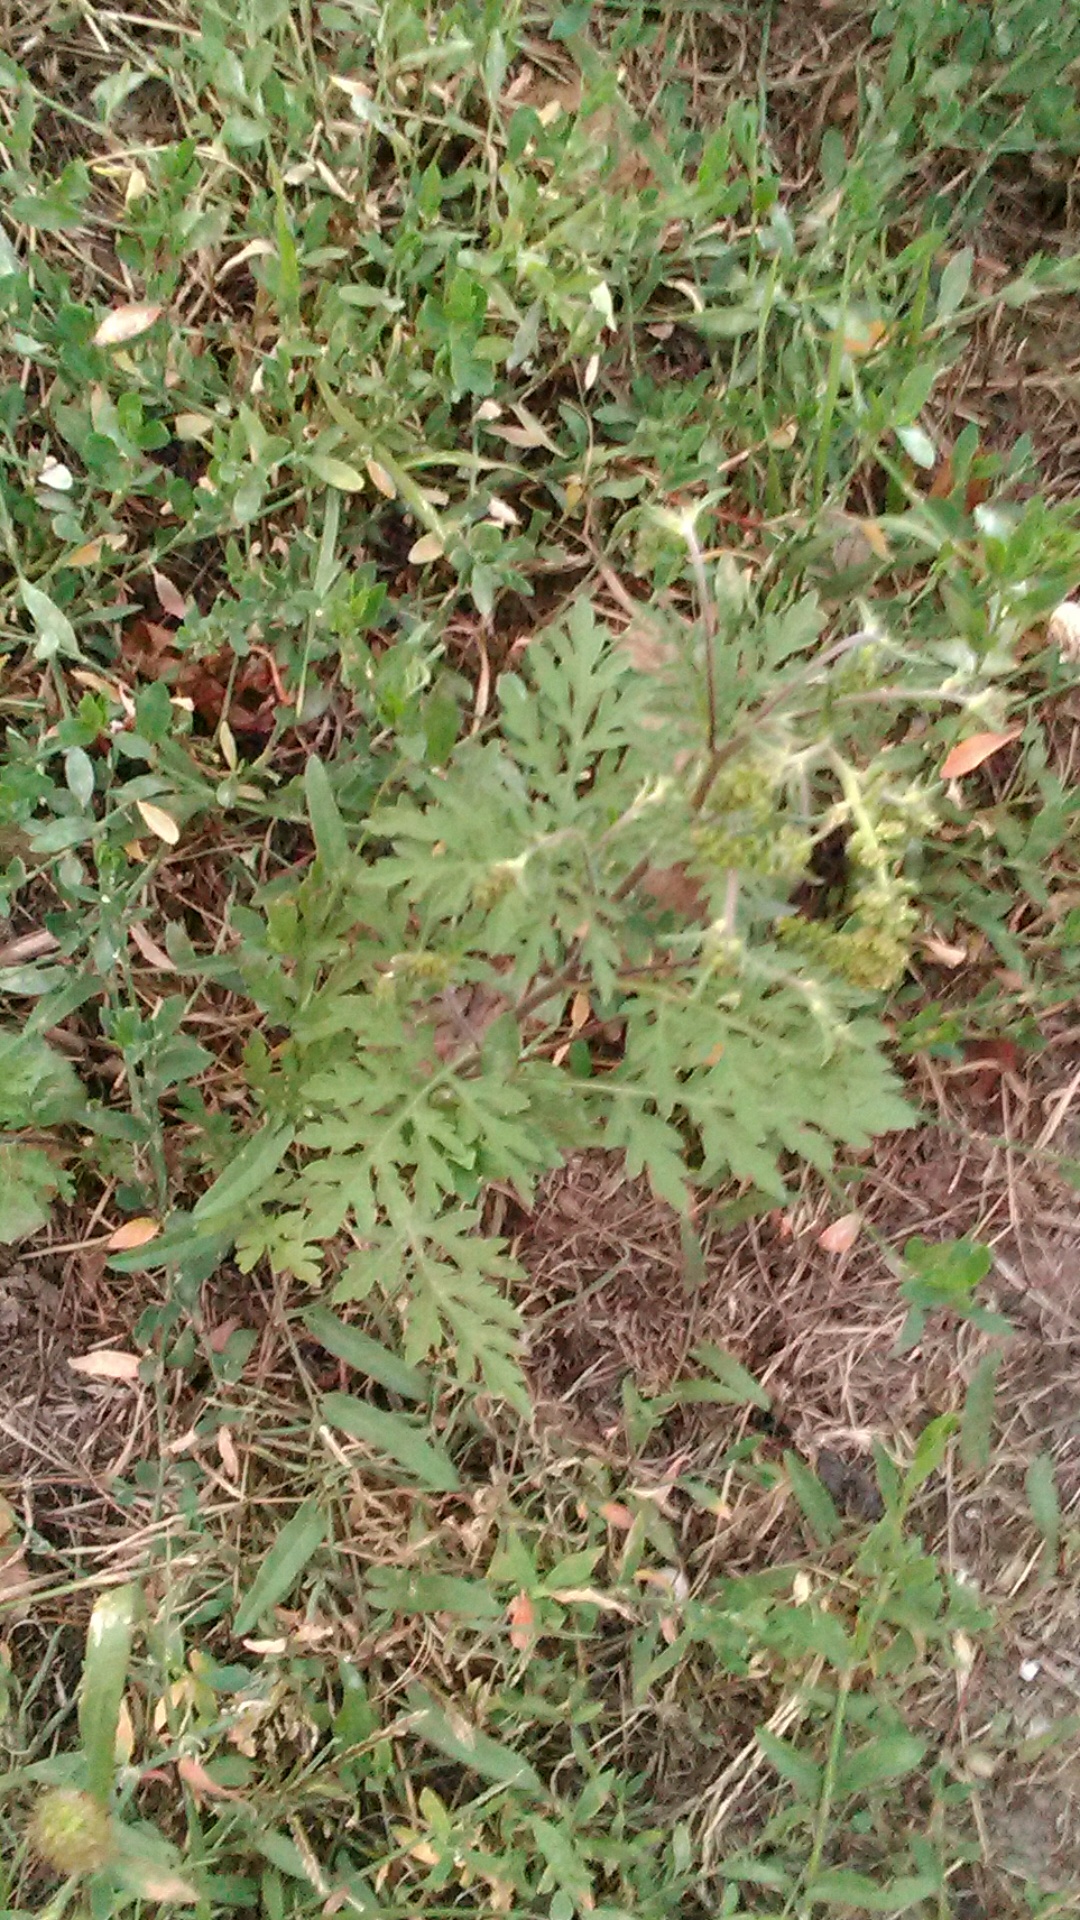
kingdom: Plantae
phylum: Tracheophyta
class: Magnoliopsida
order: Asterales
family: Asteraceae
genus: Ambrosia
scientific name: Ambrosia artemisiifolia
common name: Annual ragweed
